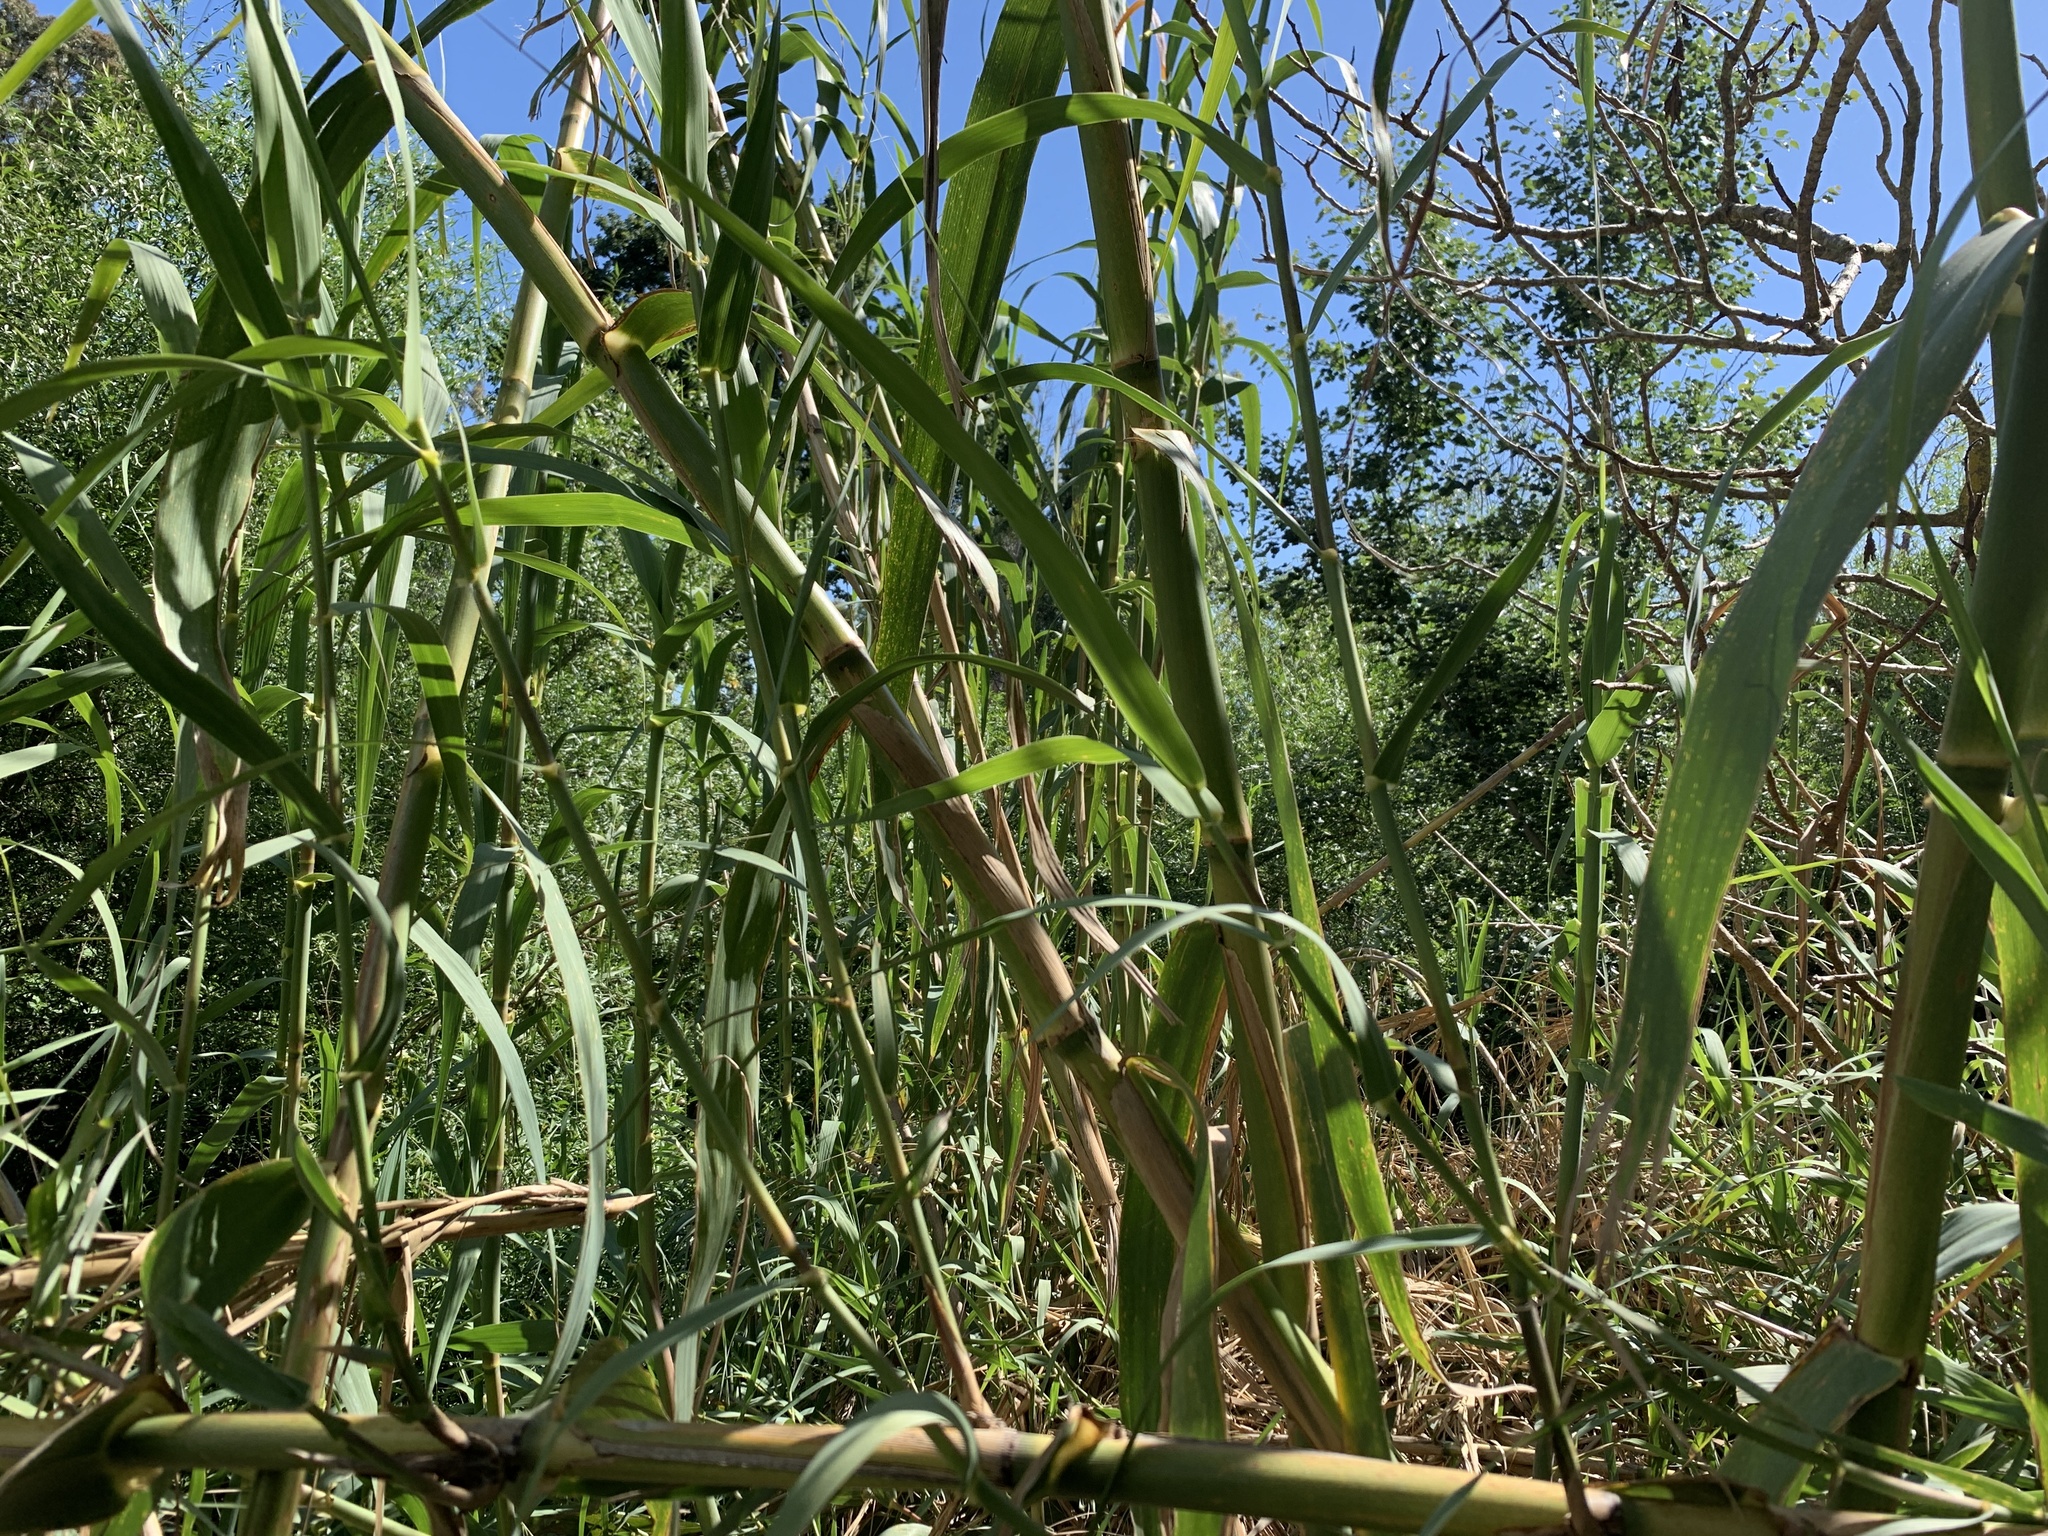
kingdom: Plantae
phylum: Tracheophyta
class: Liliopsida
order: Poales
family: Poaceae
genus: Arundo
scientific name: Arundo donax
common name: Giant reed
